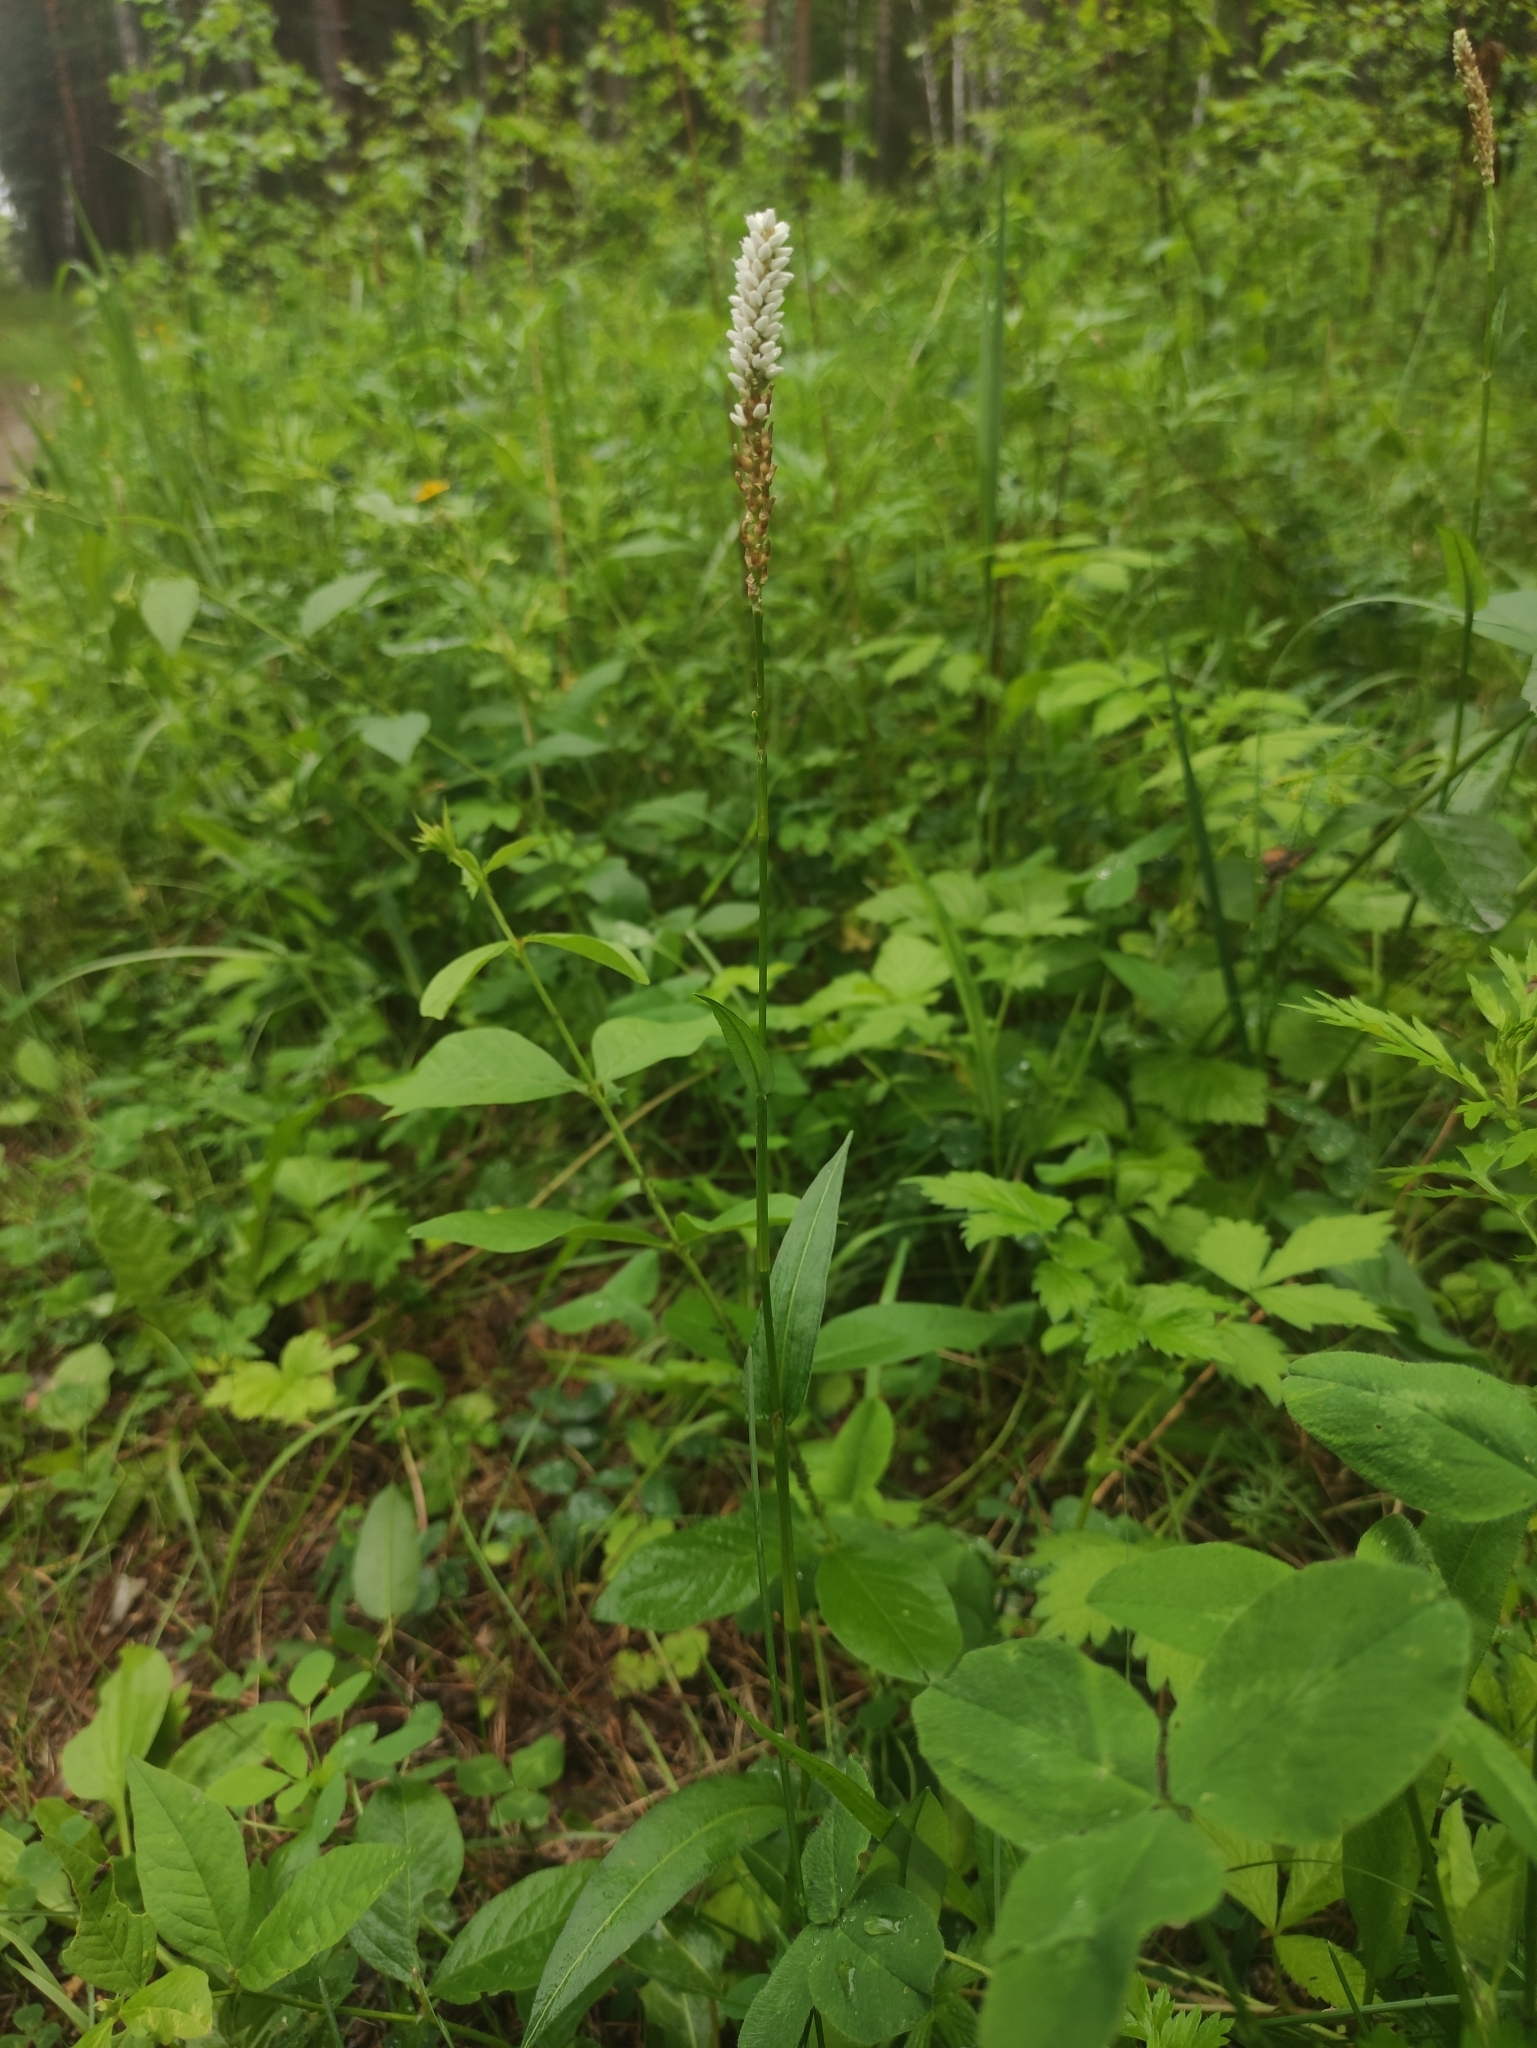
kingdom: Plantae
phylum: Tracheophyta
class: Magnoliopsida
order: Caryophyllales
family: Polygonaceae
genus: Bistorta
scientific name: Bistorta vivipara
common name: Alpine bistort
